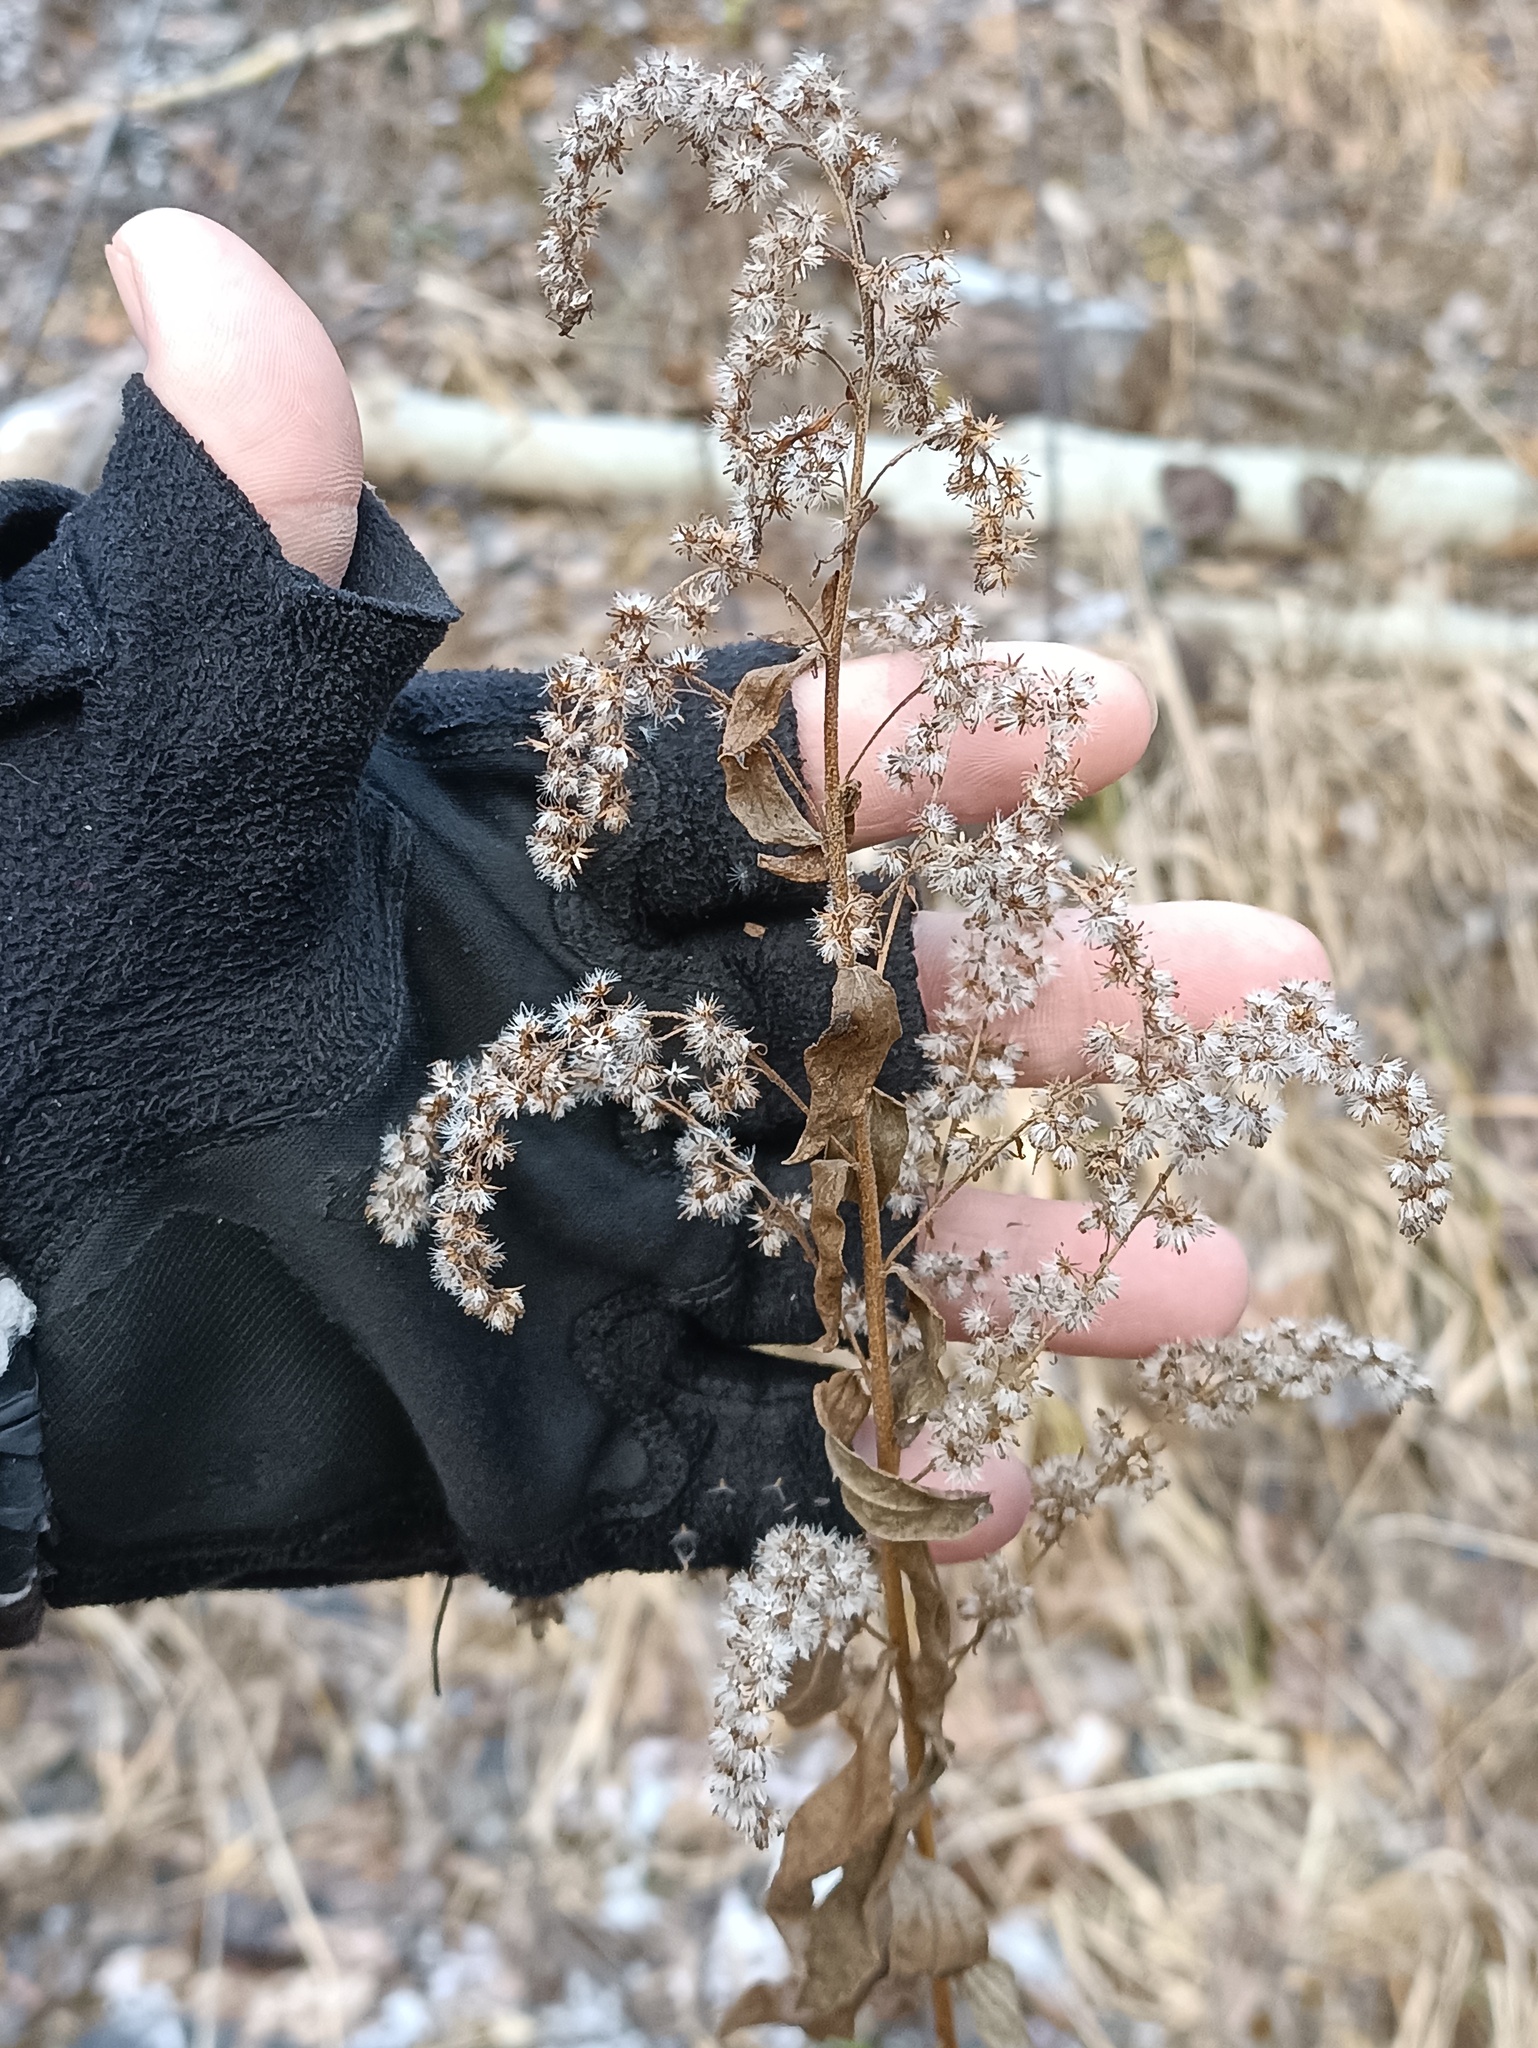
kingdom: Plantae
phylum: Tracheophyta
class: Magnoliopsida
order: Asterales
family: Asteraceae
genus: Solidago
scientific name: Solidago canadensis
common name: Canada goldenrod
